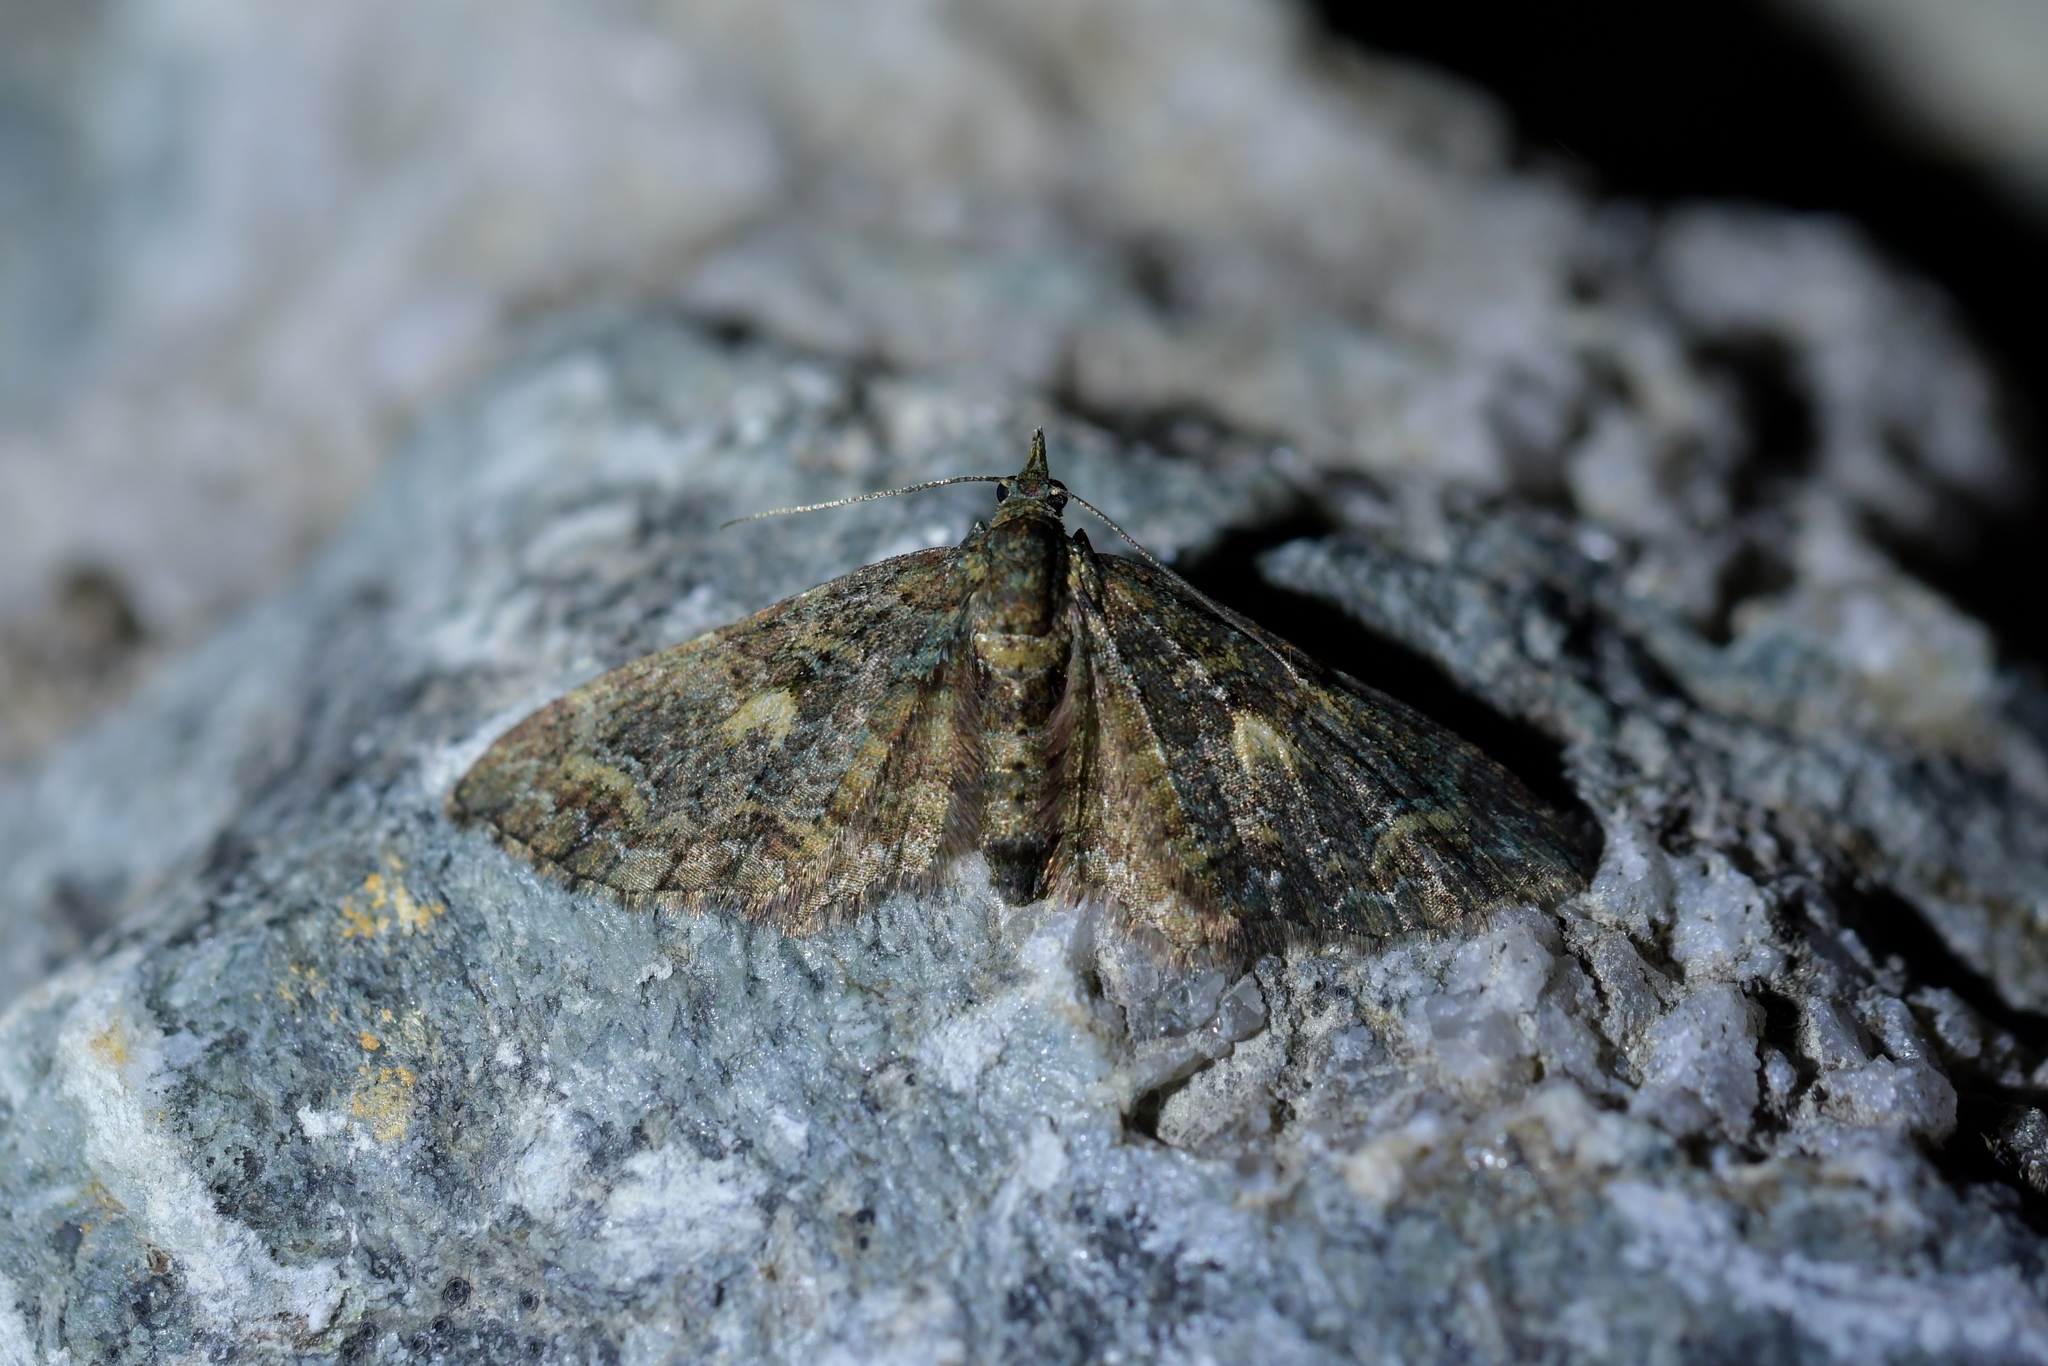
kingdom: Animalia
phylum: Arthropoda
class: Insecta
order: Lepidoptera
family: Geometridae
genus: Pasiphila
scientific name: Pasiphila lunata
